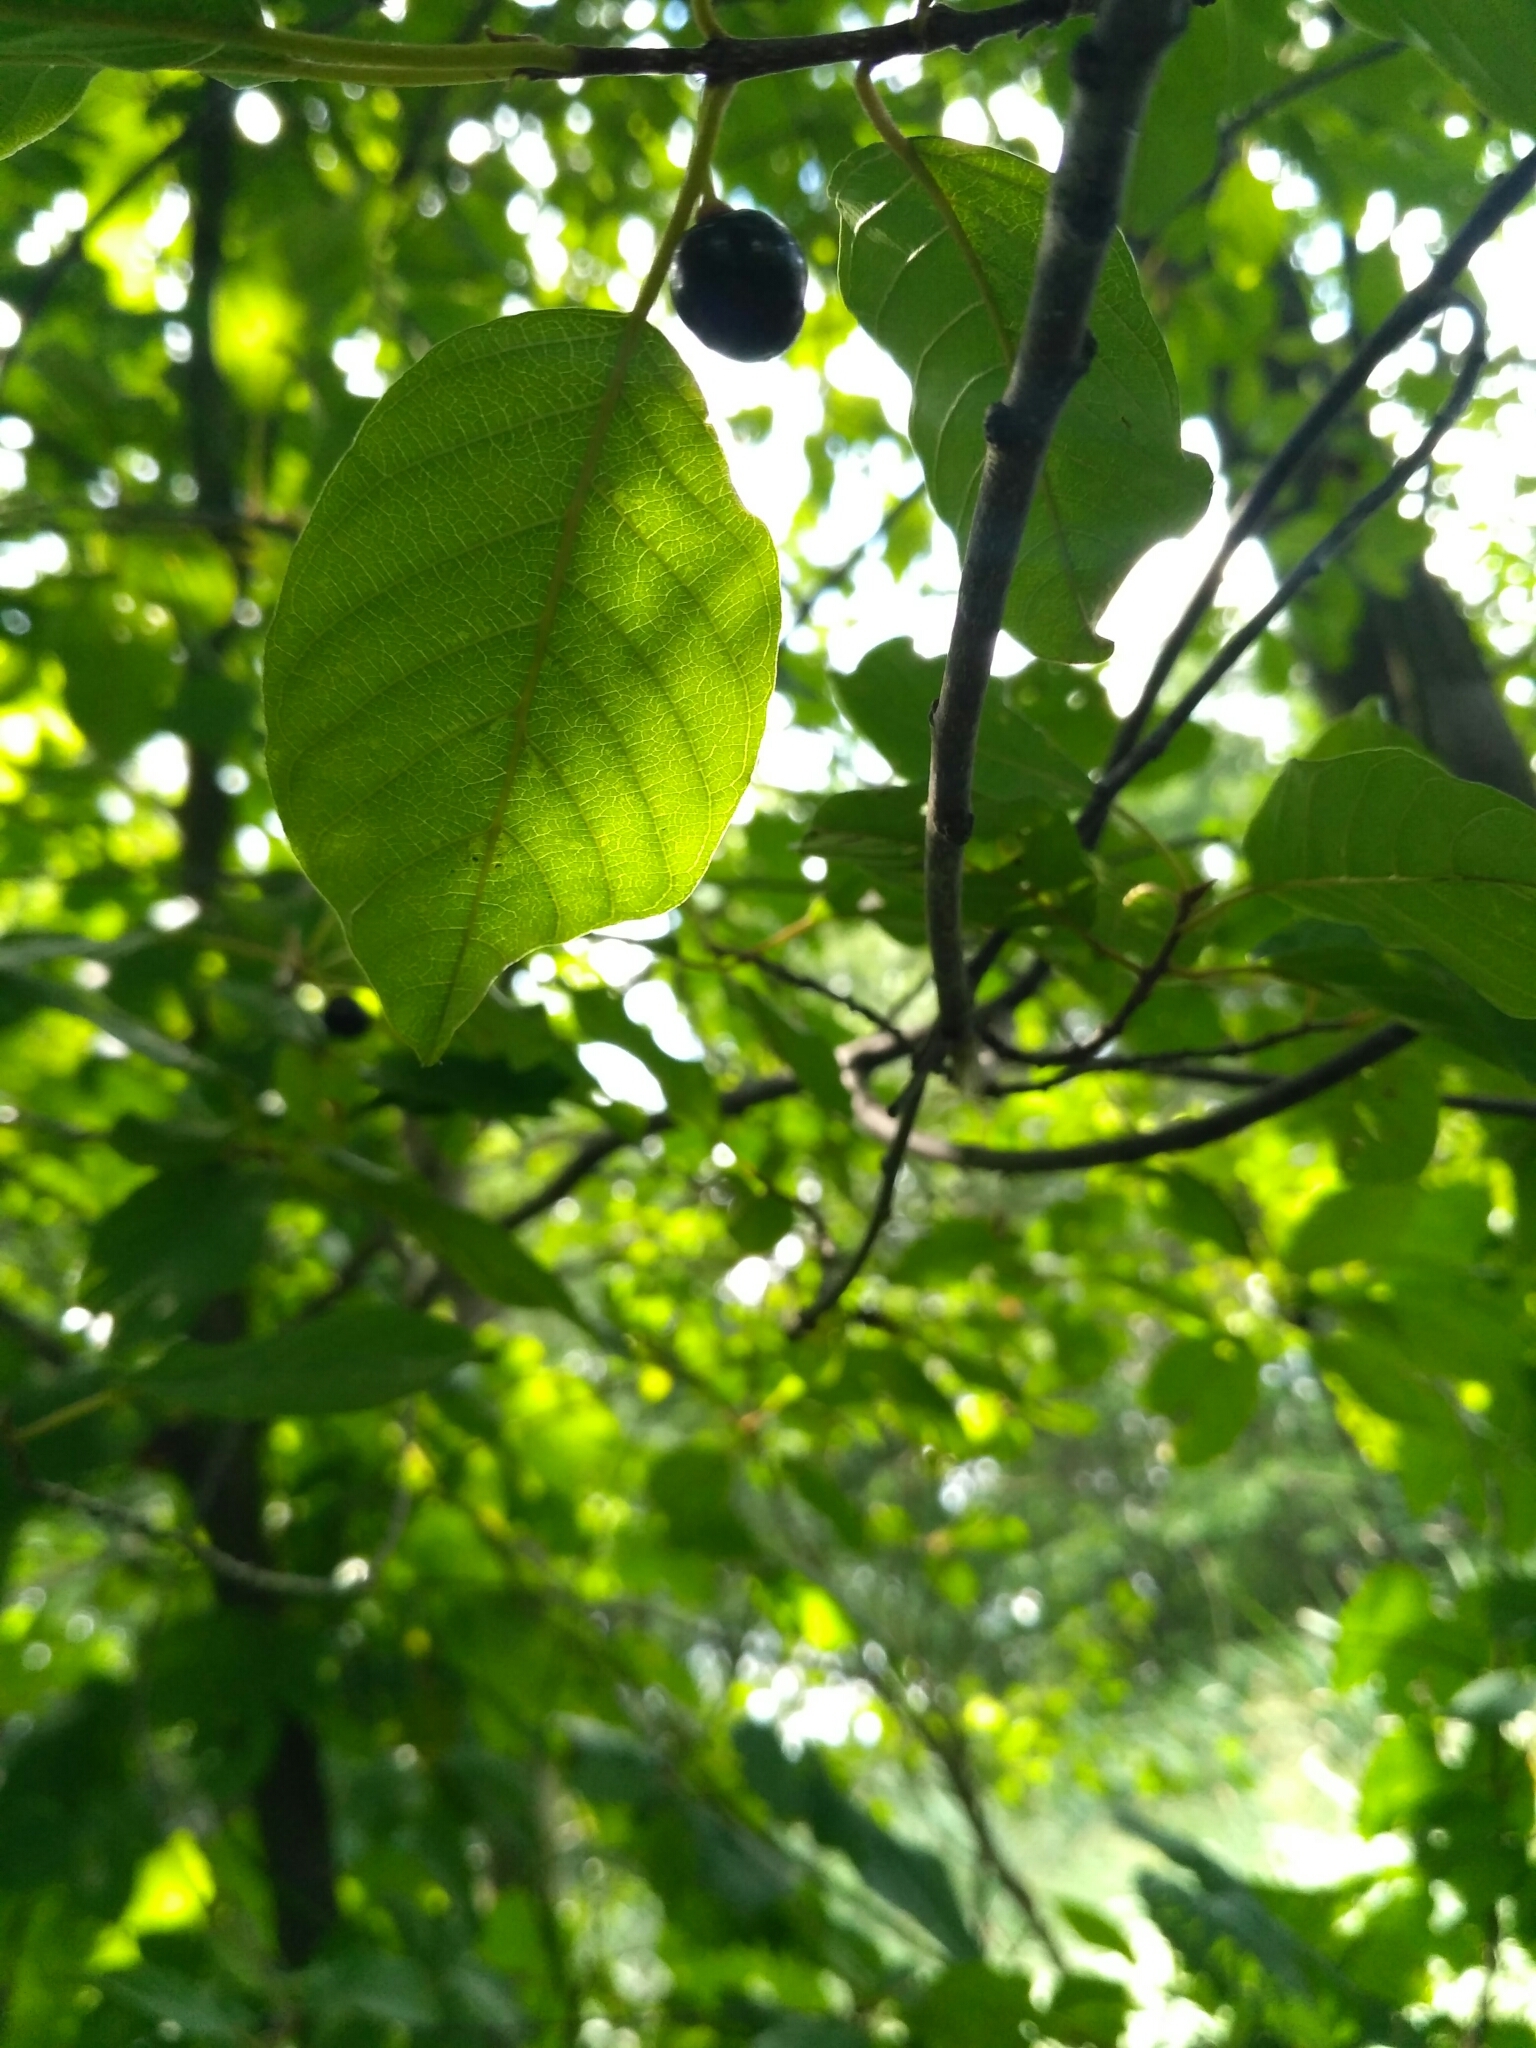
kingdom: Plantae
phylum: Tracheophyta
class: Magnoliopsida
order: Rosales
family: Rhamnaceae
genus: Frangula
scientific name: Frangula alnus
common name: Alder buckthorn
